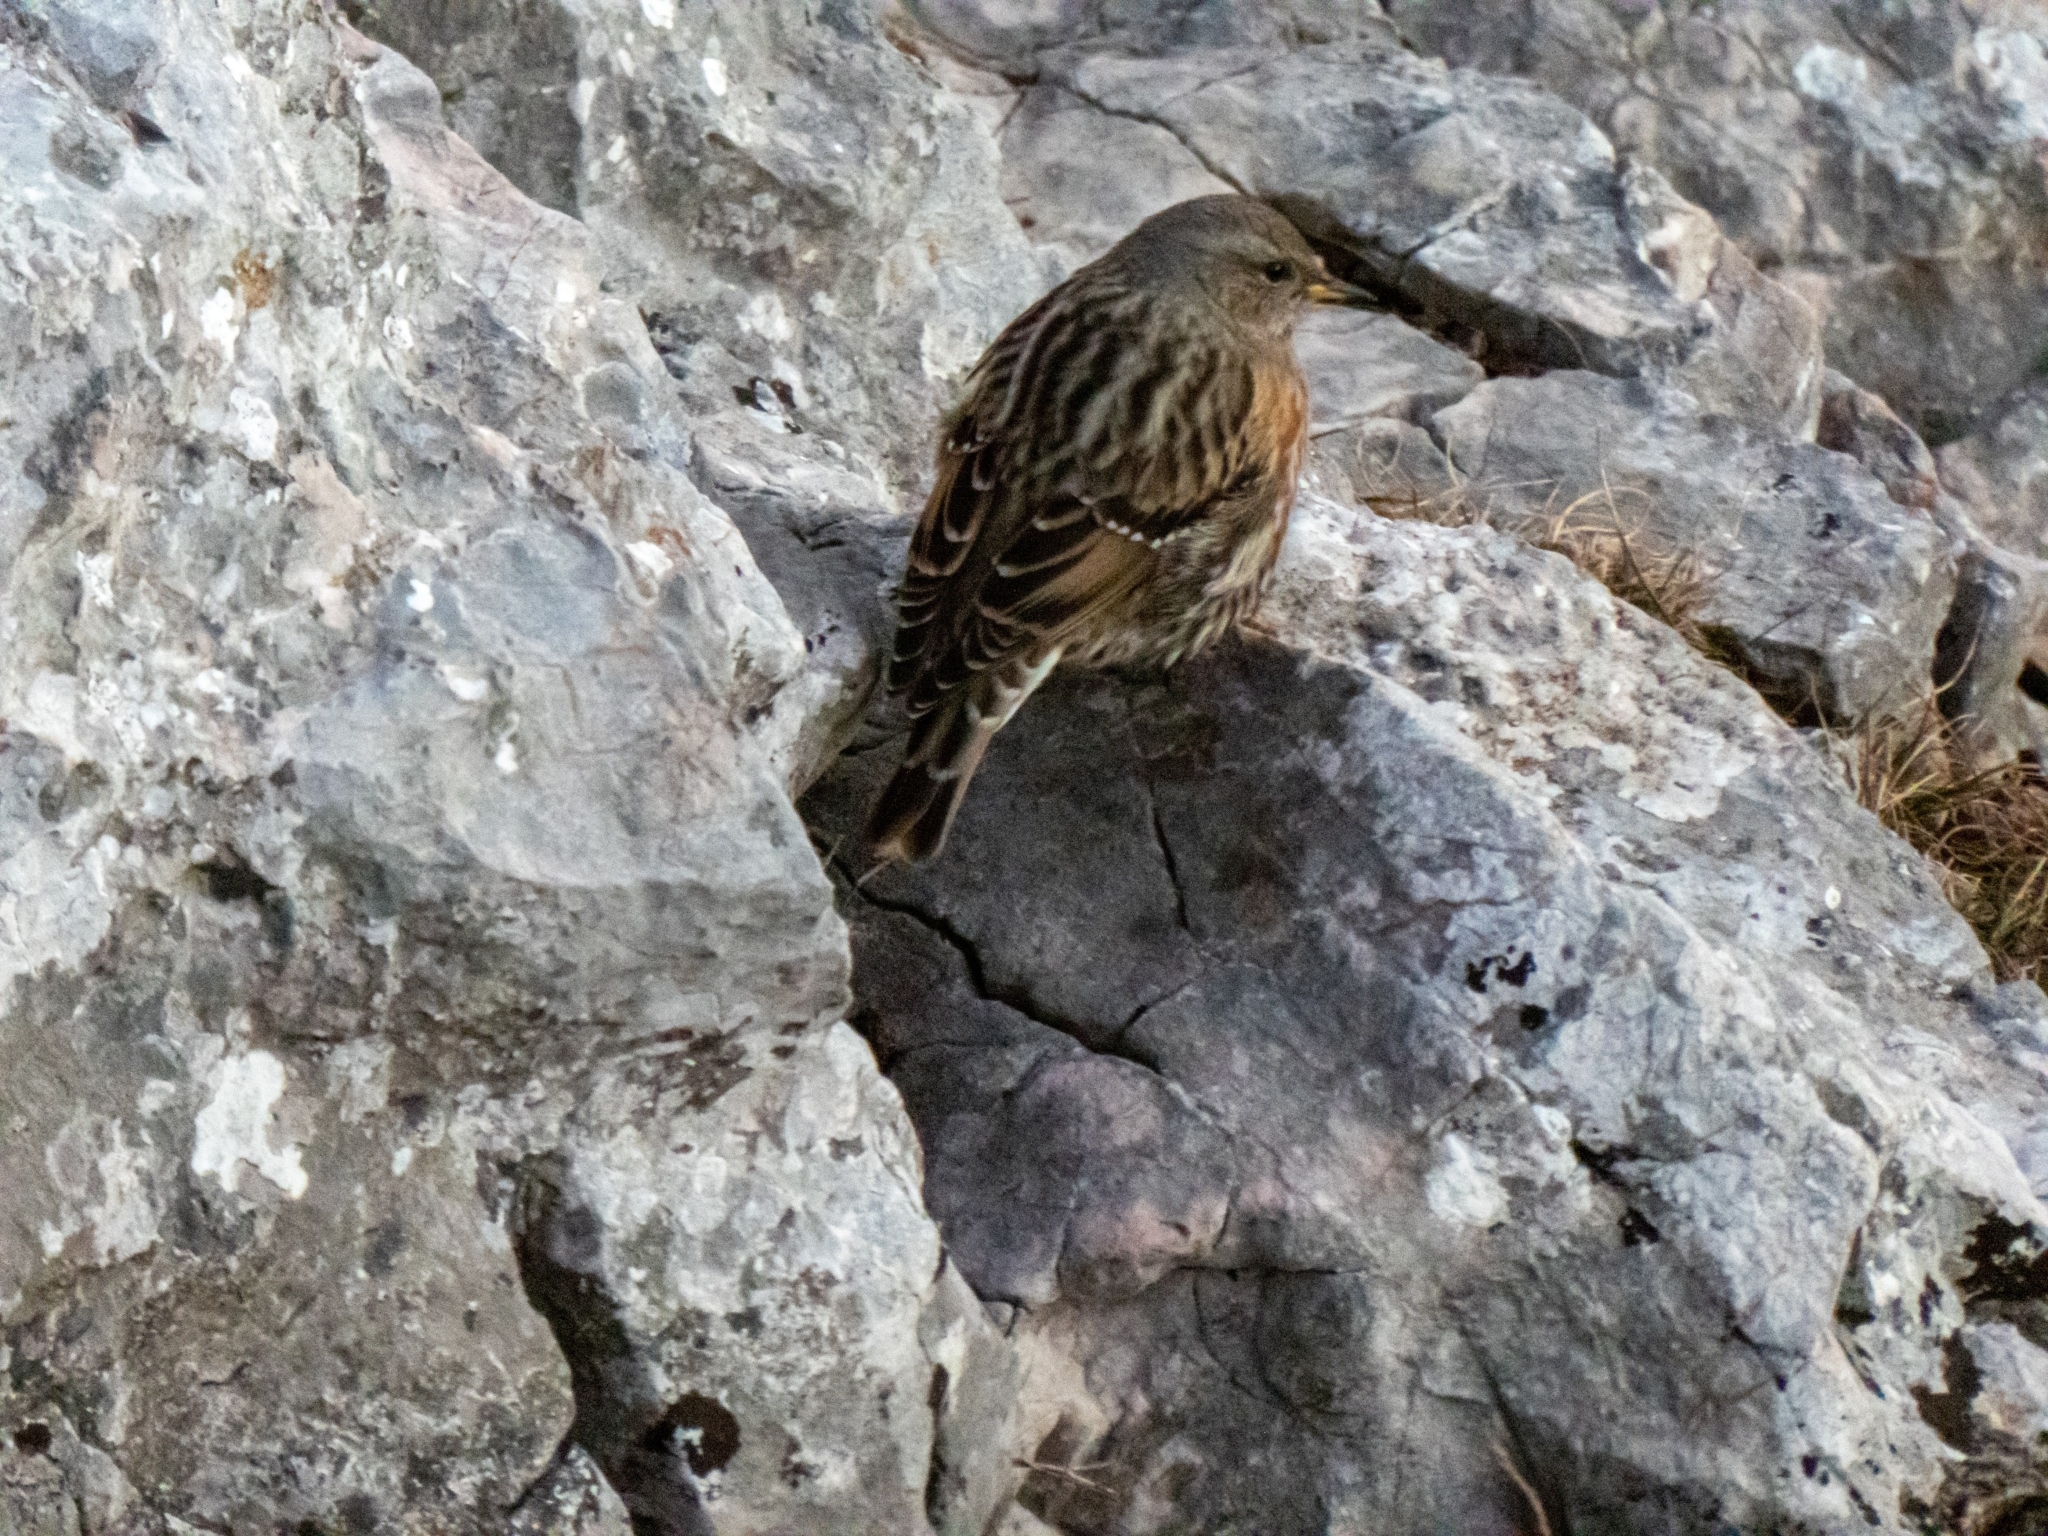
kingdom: Animalia
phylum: Chordata
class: Aves
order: Passeriformes
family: Prunellidae
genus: Prunella
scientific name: Prunella collaris
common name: Alpine accentor
